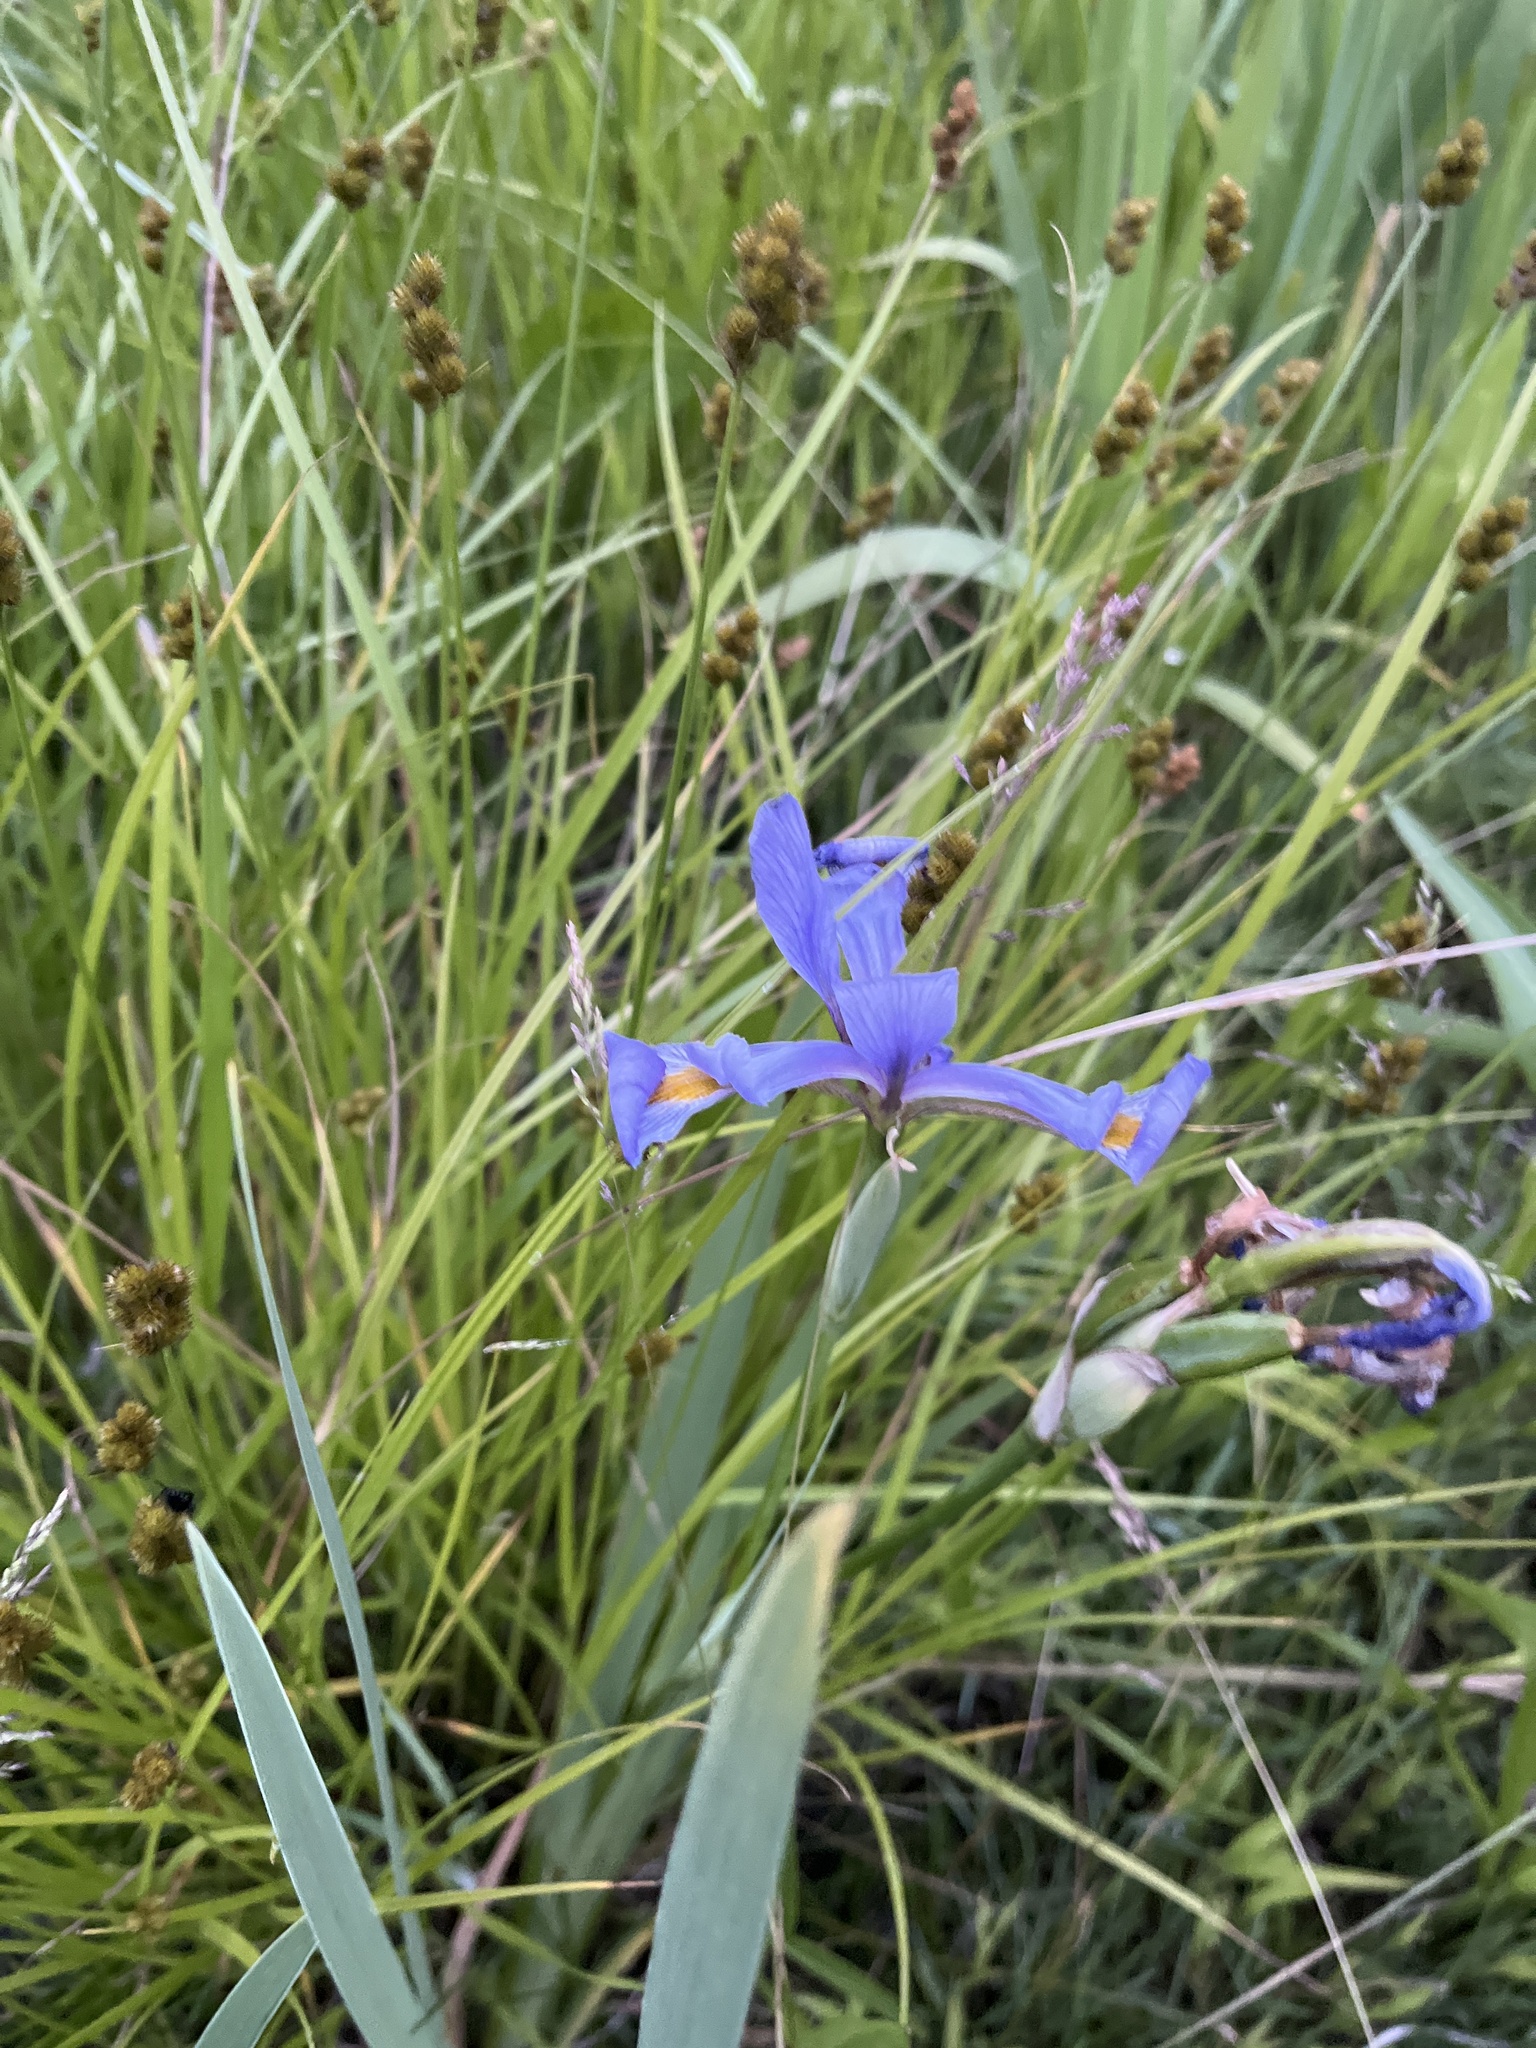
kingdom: Plantae
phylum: Tracheophyta
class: Liliopsida
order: Asparagales
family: Iridaceae
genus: Iris
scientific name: Iris virginica
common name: Southern blue flag
